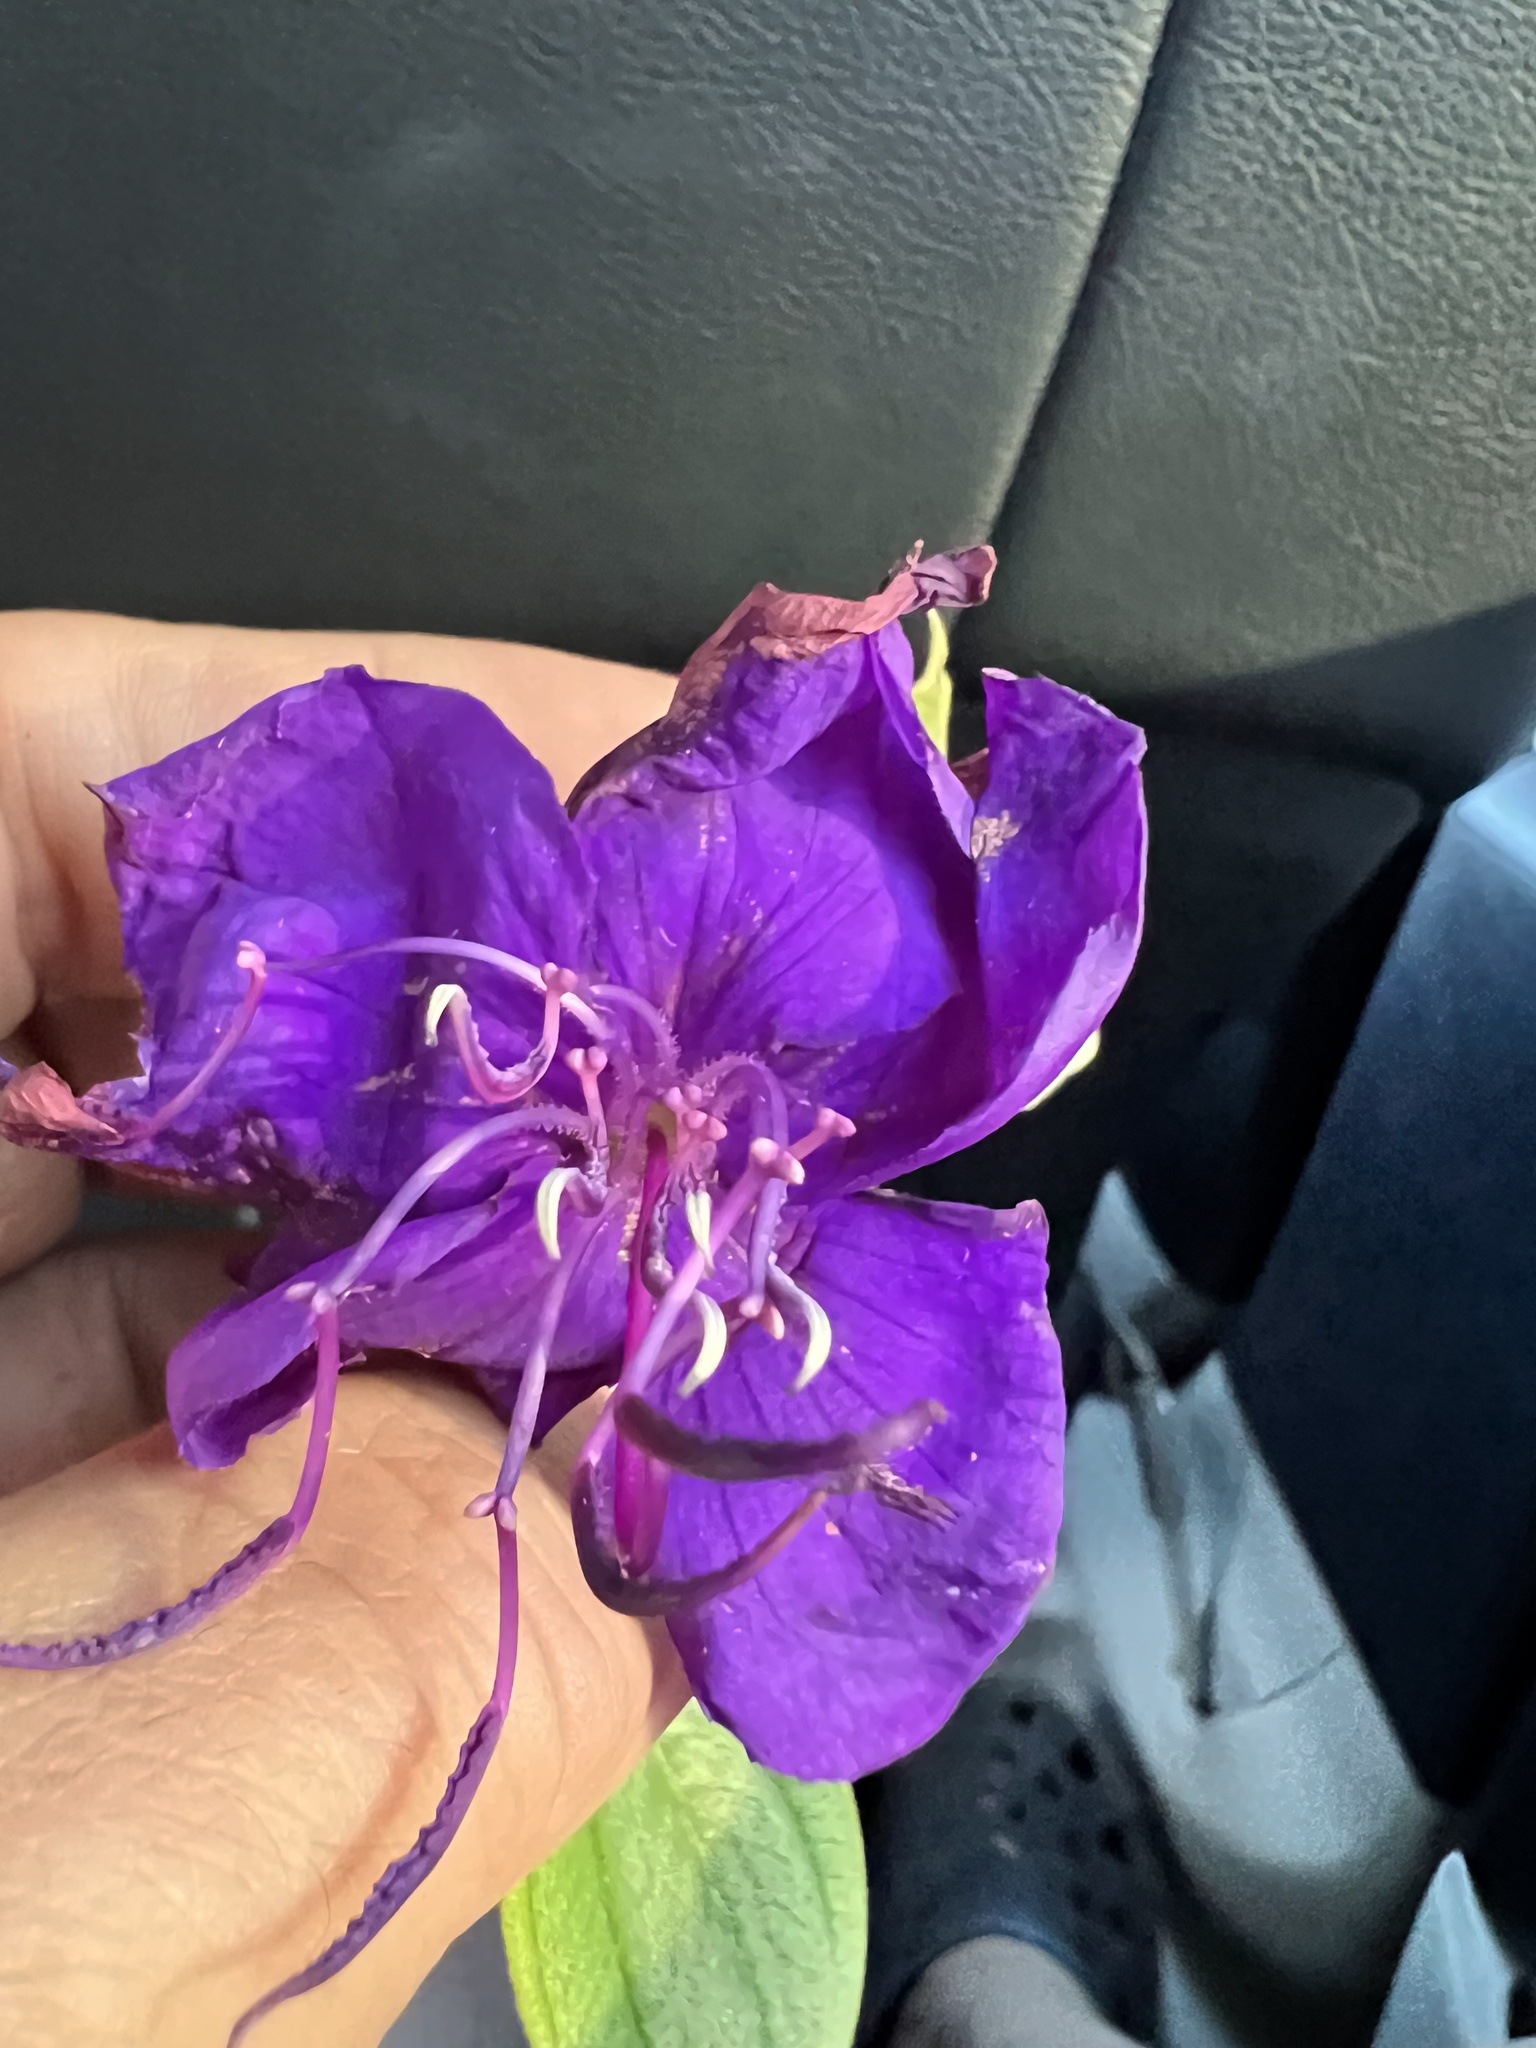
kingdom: Plantae
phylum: Tracheophyta
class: Magnoliopsida
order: Myrtales
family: Melastomataceae
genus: Pleroma
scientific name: Pleroma urvilleanum
